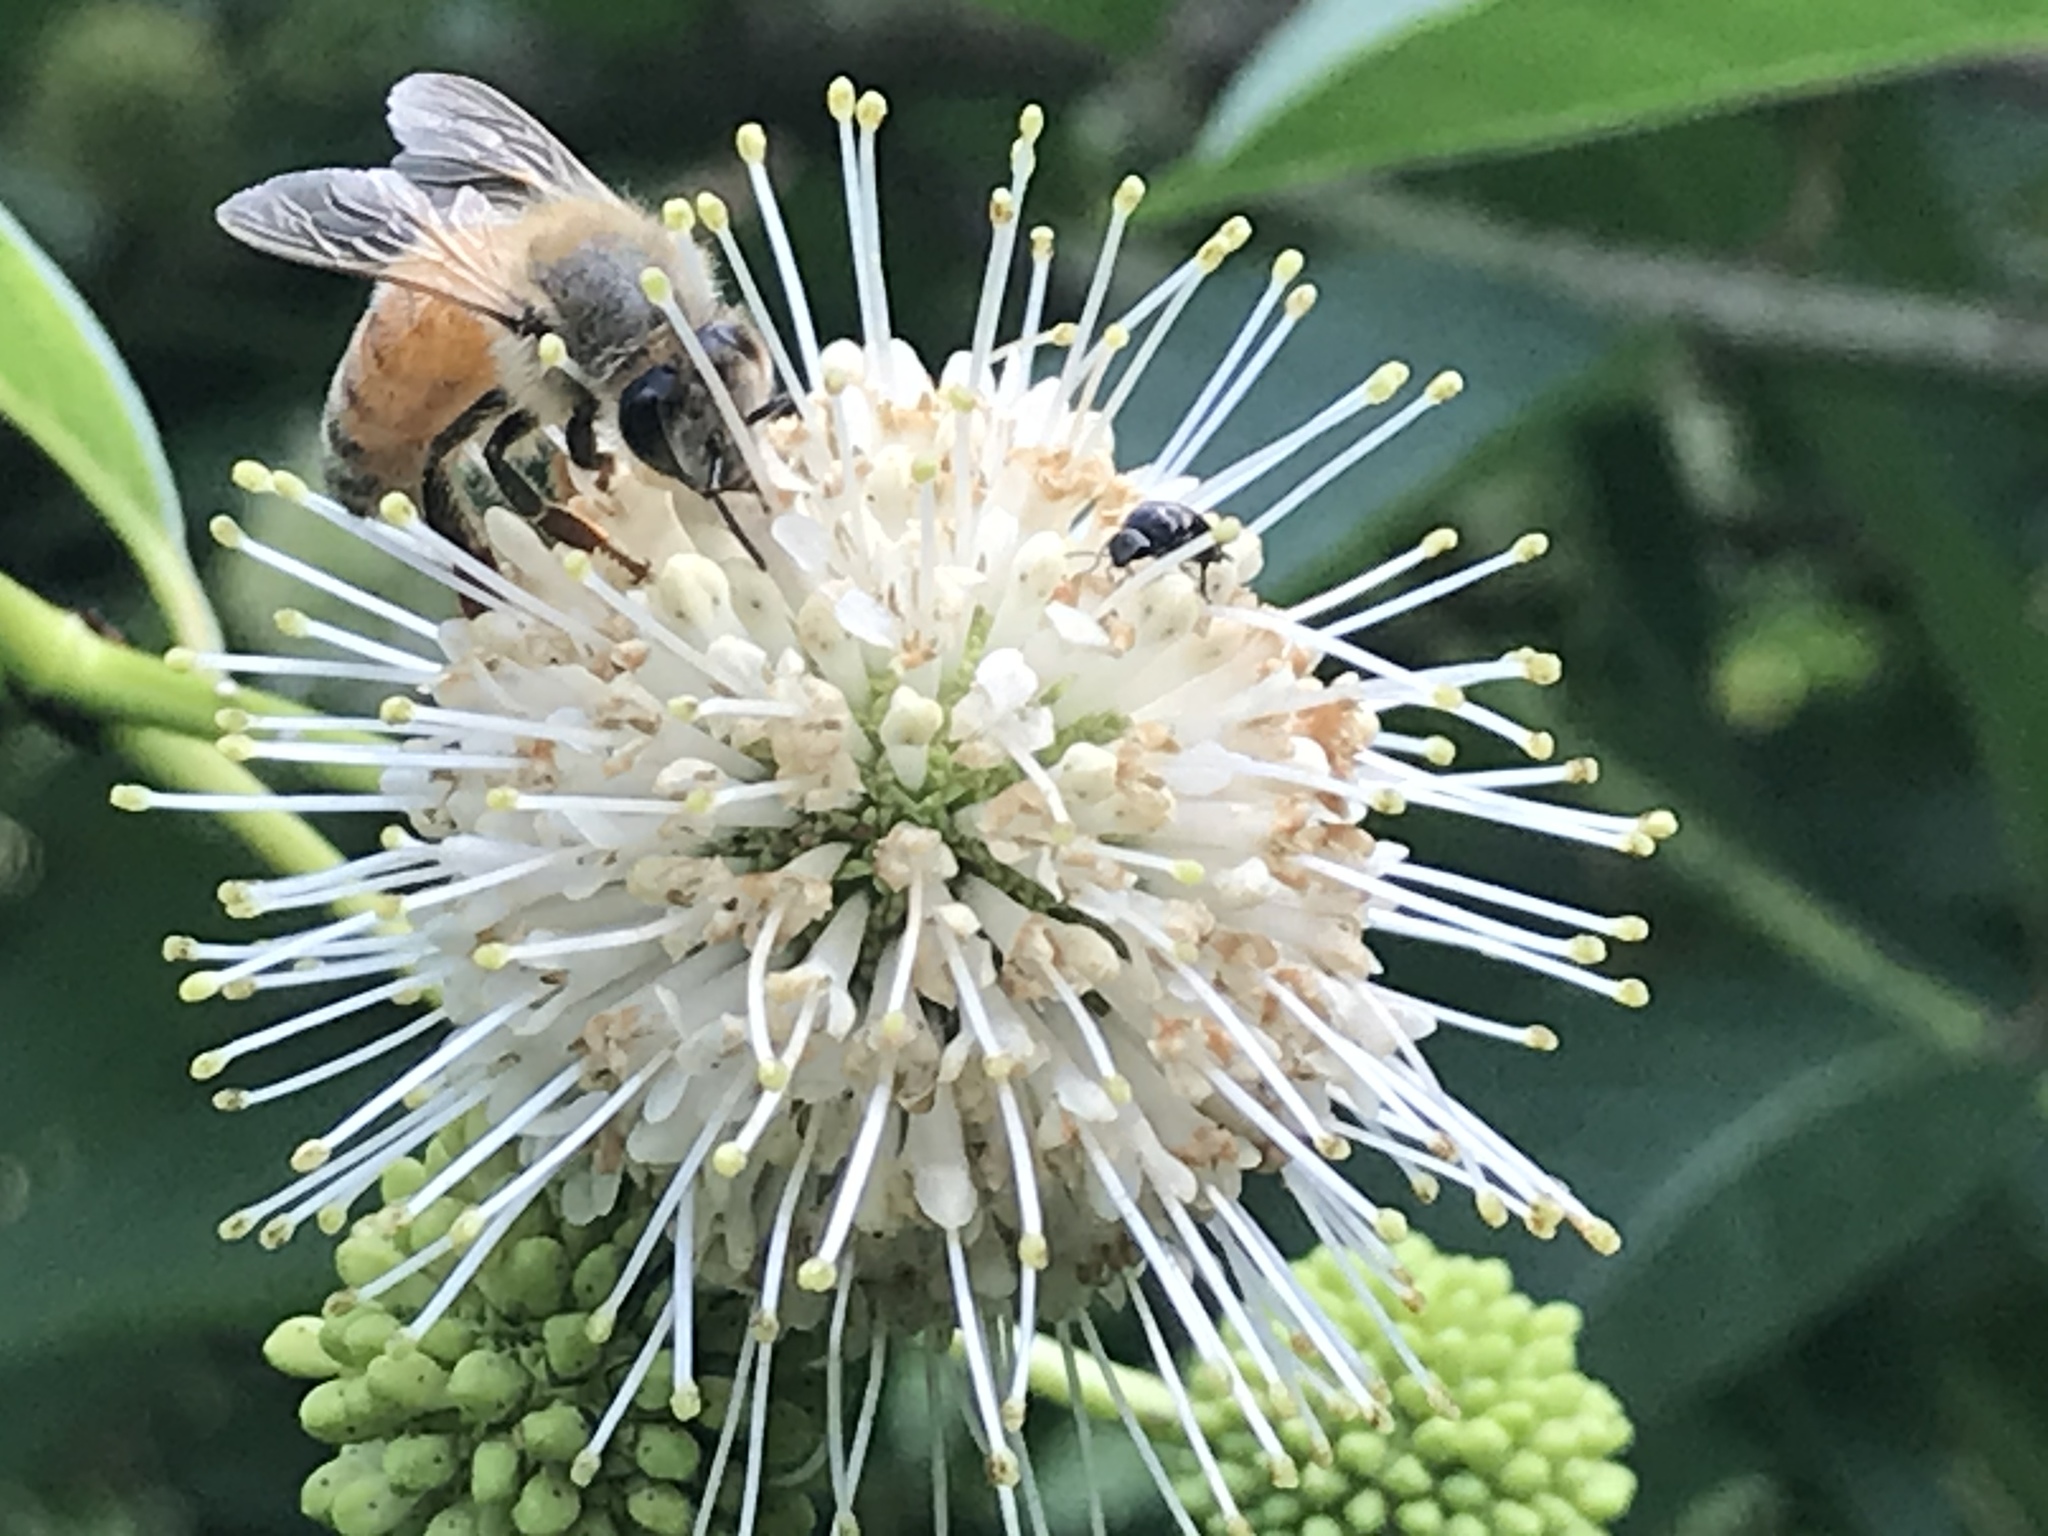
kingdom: Animalia
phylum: Arthropoda
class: Insecta
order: Hymenoptera
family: Apidae
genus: Apis
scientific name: Apis mellifera
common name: Honey bee
